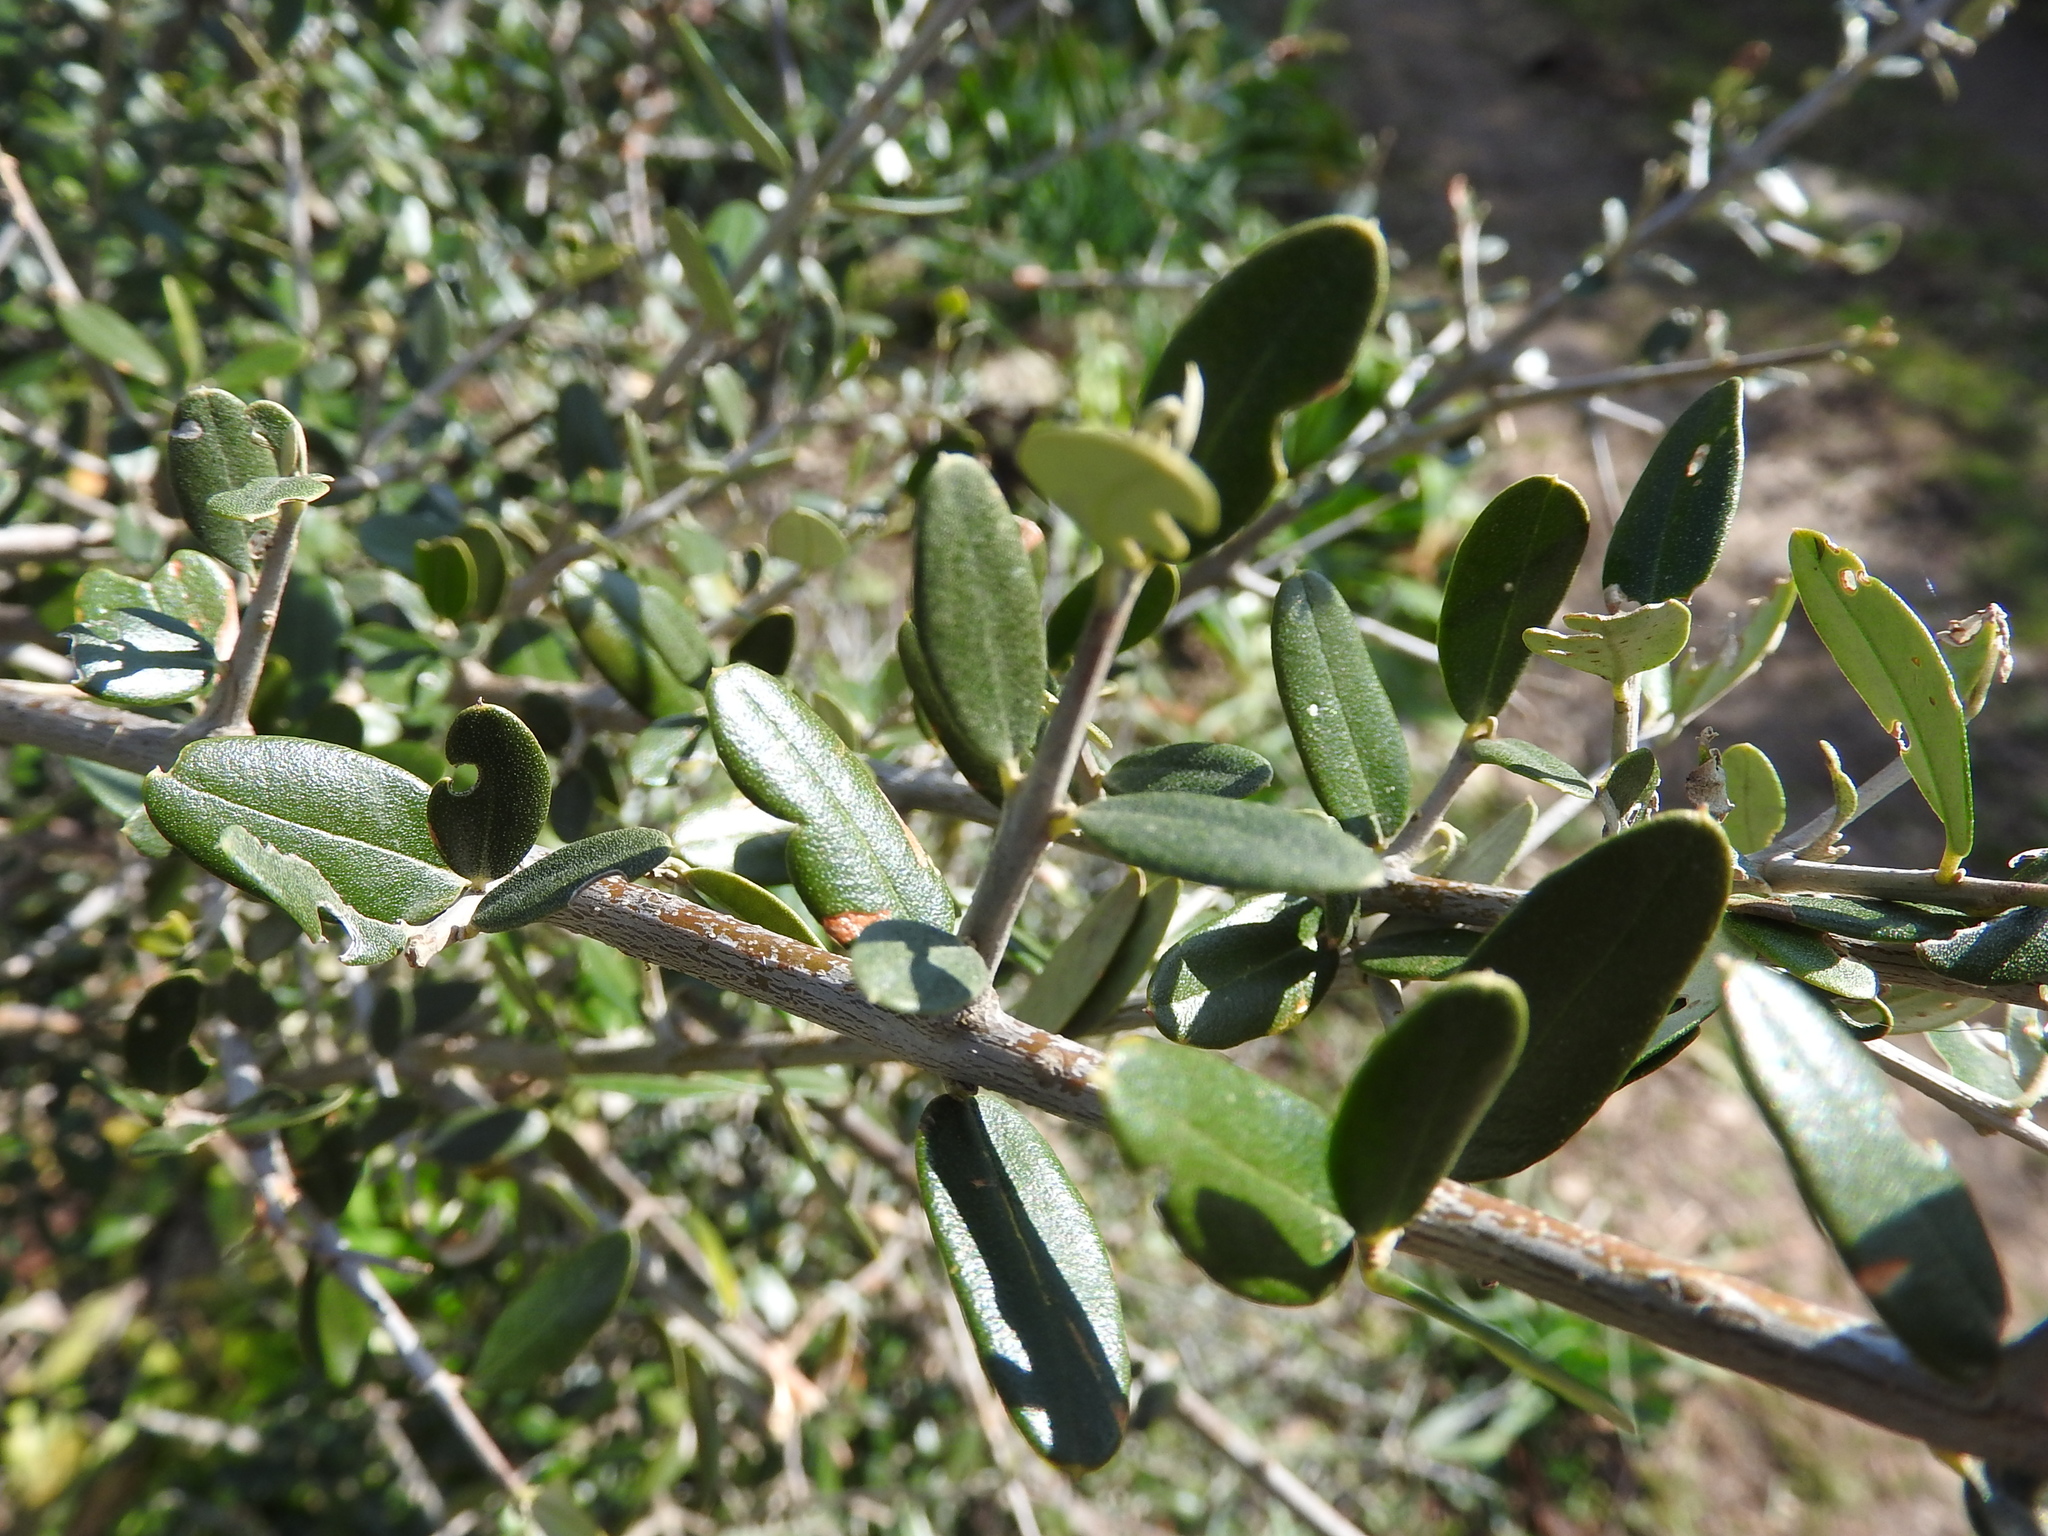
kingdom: Plantae
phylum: Tracheophyta
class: Magnoliopsida
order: Lamiales
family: Oleaceae
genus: Olea
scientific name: Olea europaea
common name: Olive
